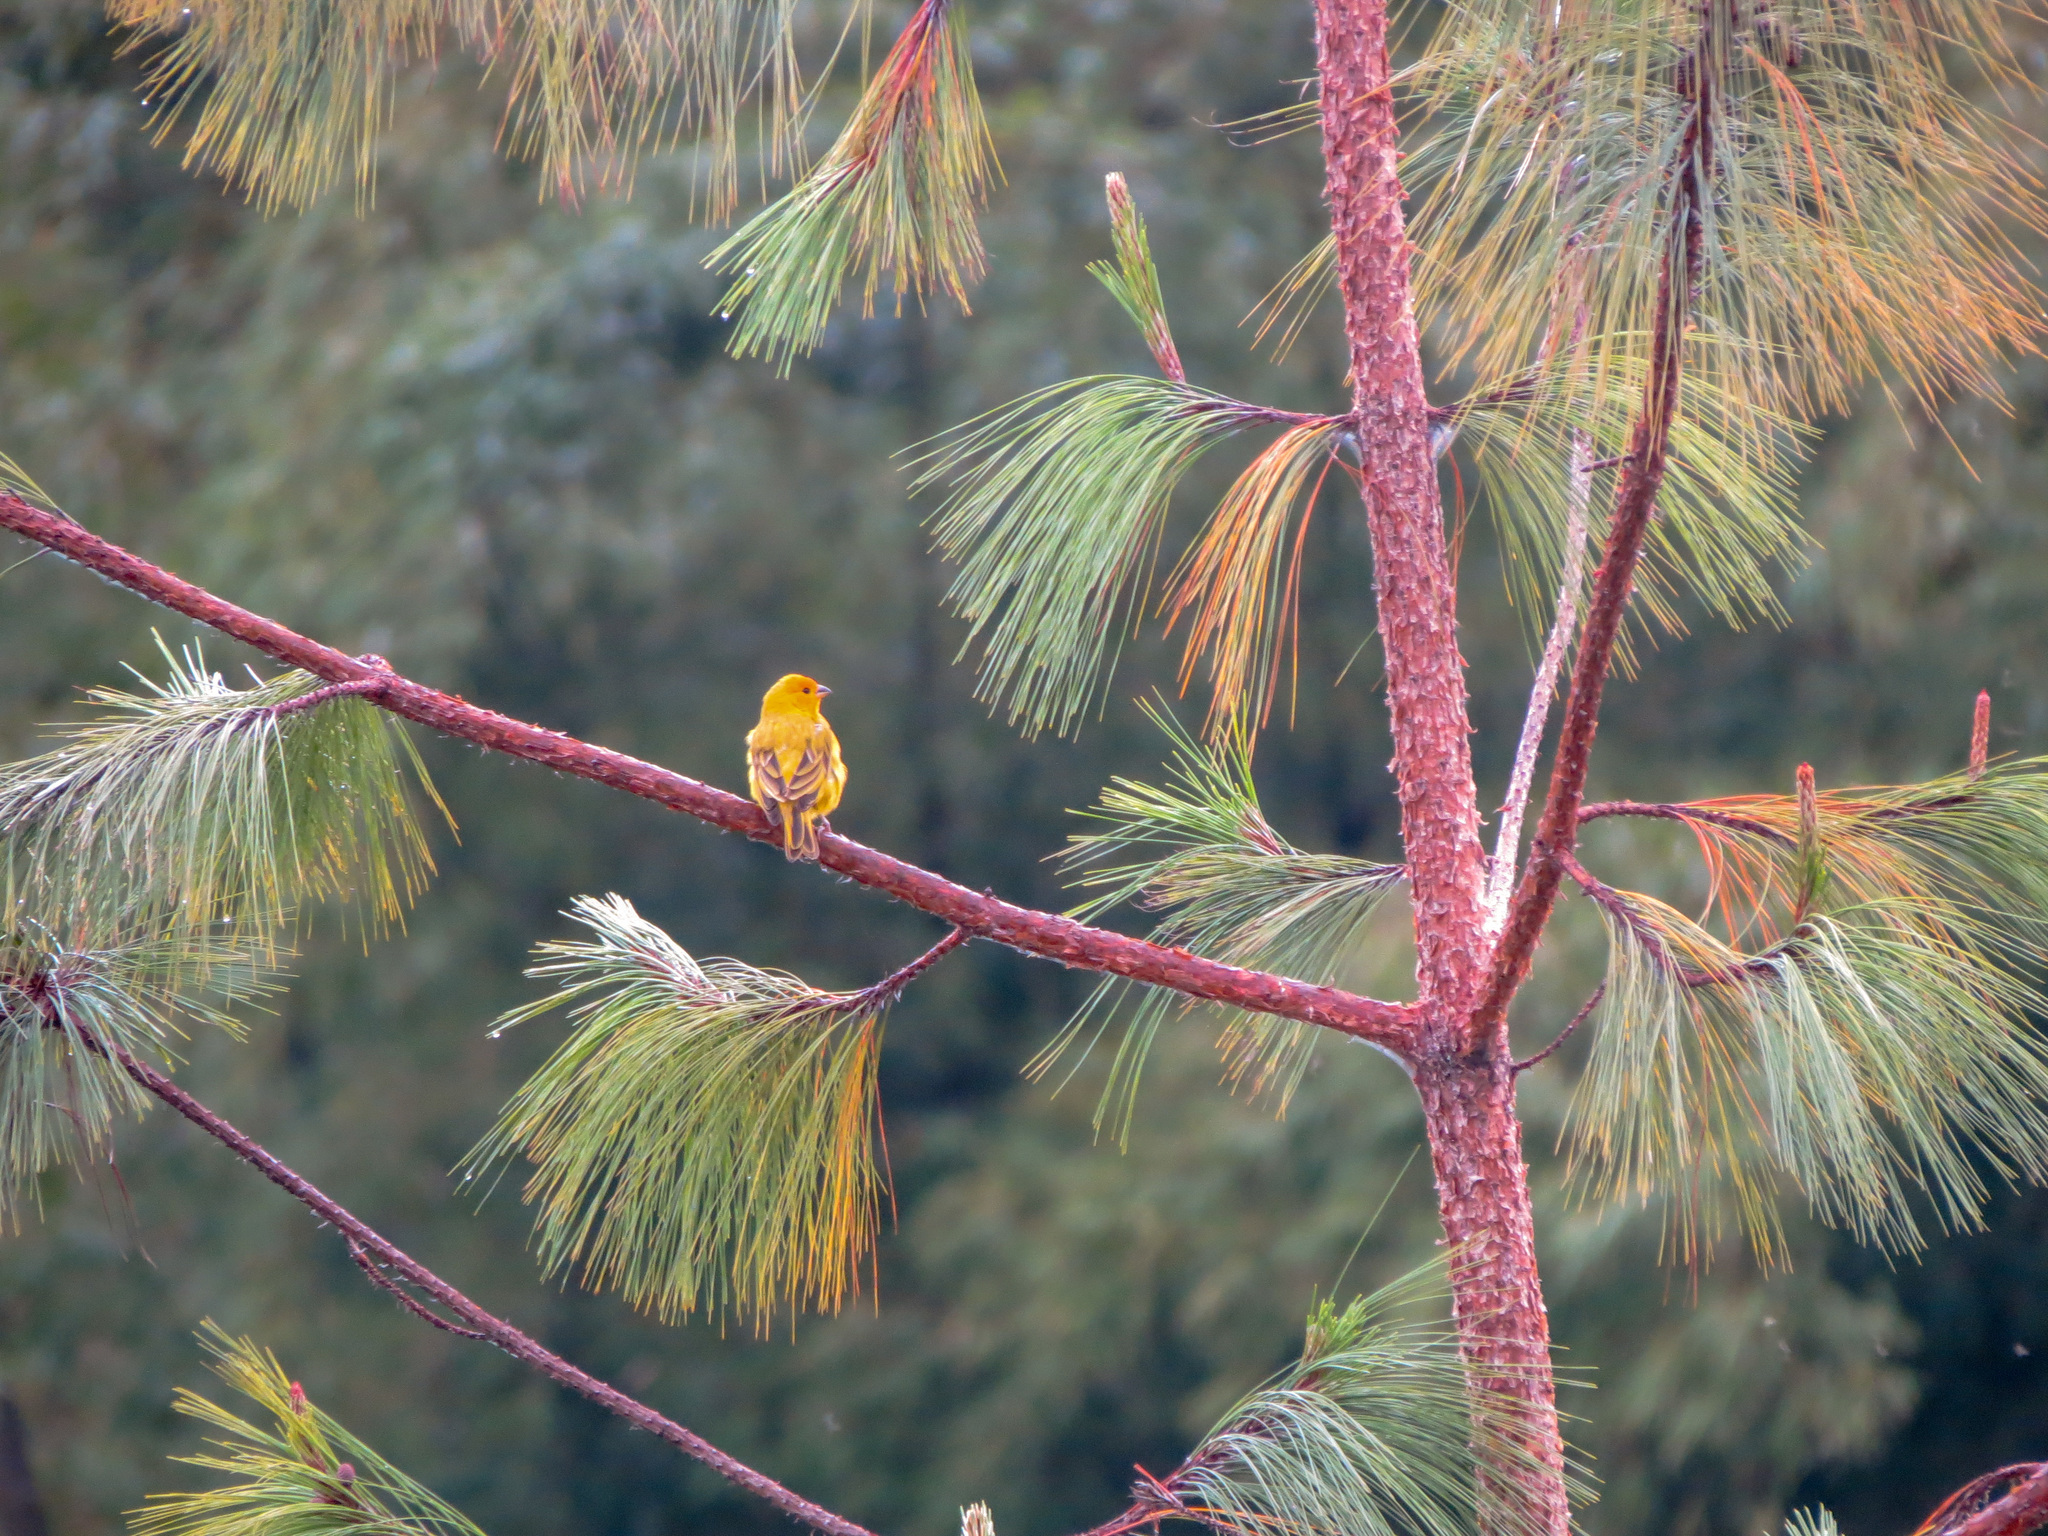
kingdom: Animalia
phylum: Chordata
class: Aves
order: Passeriformes
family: Thraupidae
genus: Sicalis
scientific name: Sicalis flaveola
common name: Saffron finch
